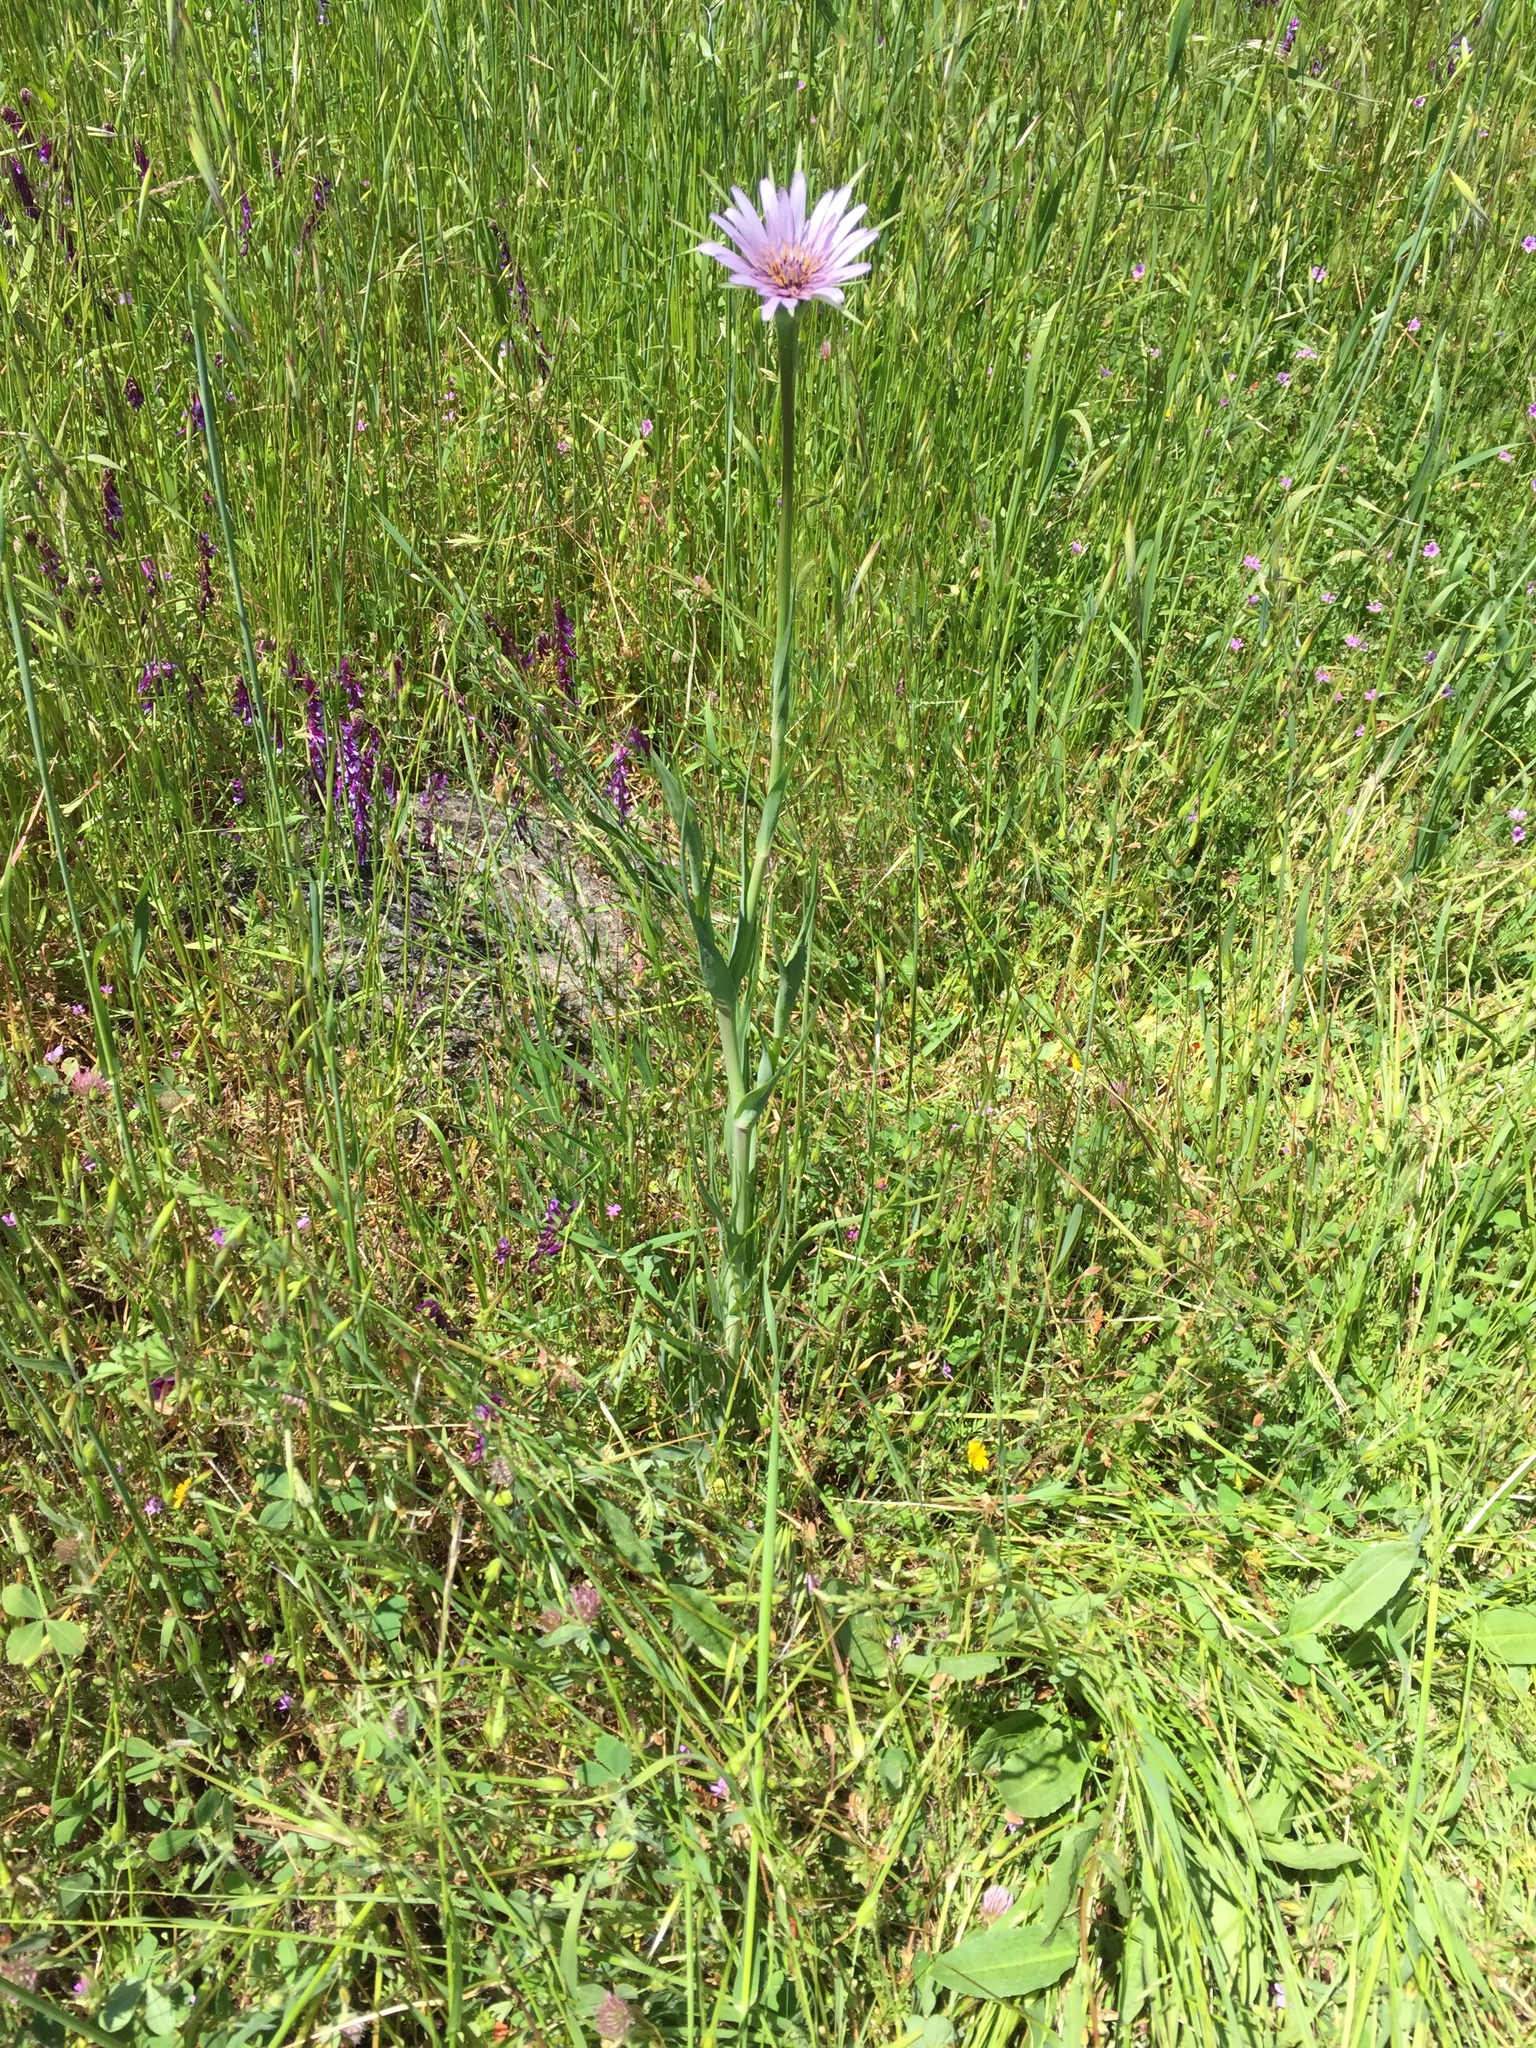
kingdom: Plantae
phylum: Tracheophyta
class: Magnoliopsida
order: Asterales
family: Asteraceae
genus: Tragopogon
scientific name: Tragopogon porrifolius
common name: Salsify
